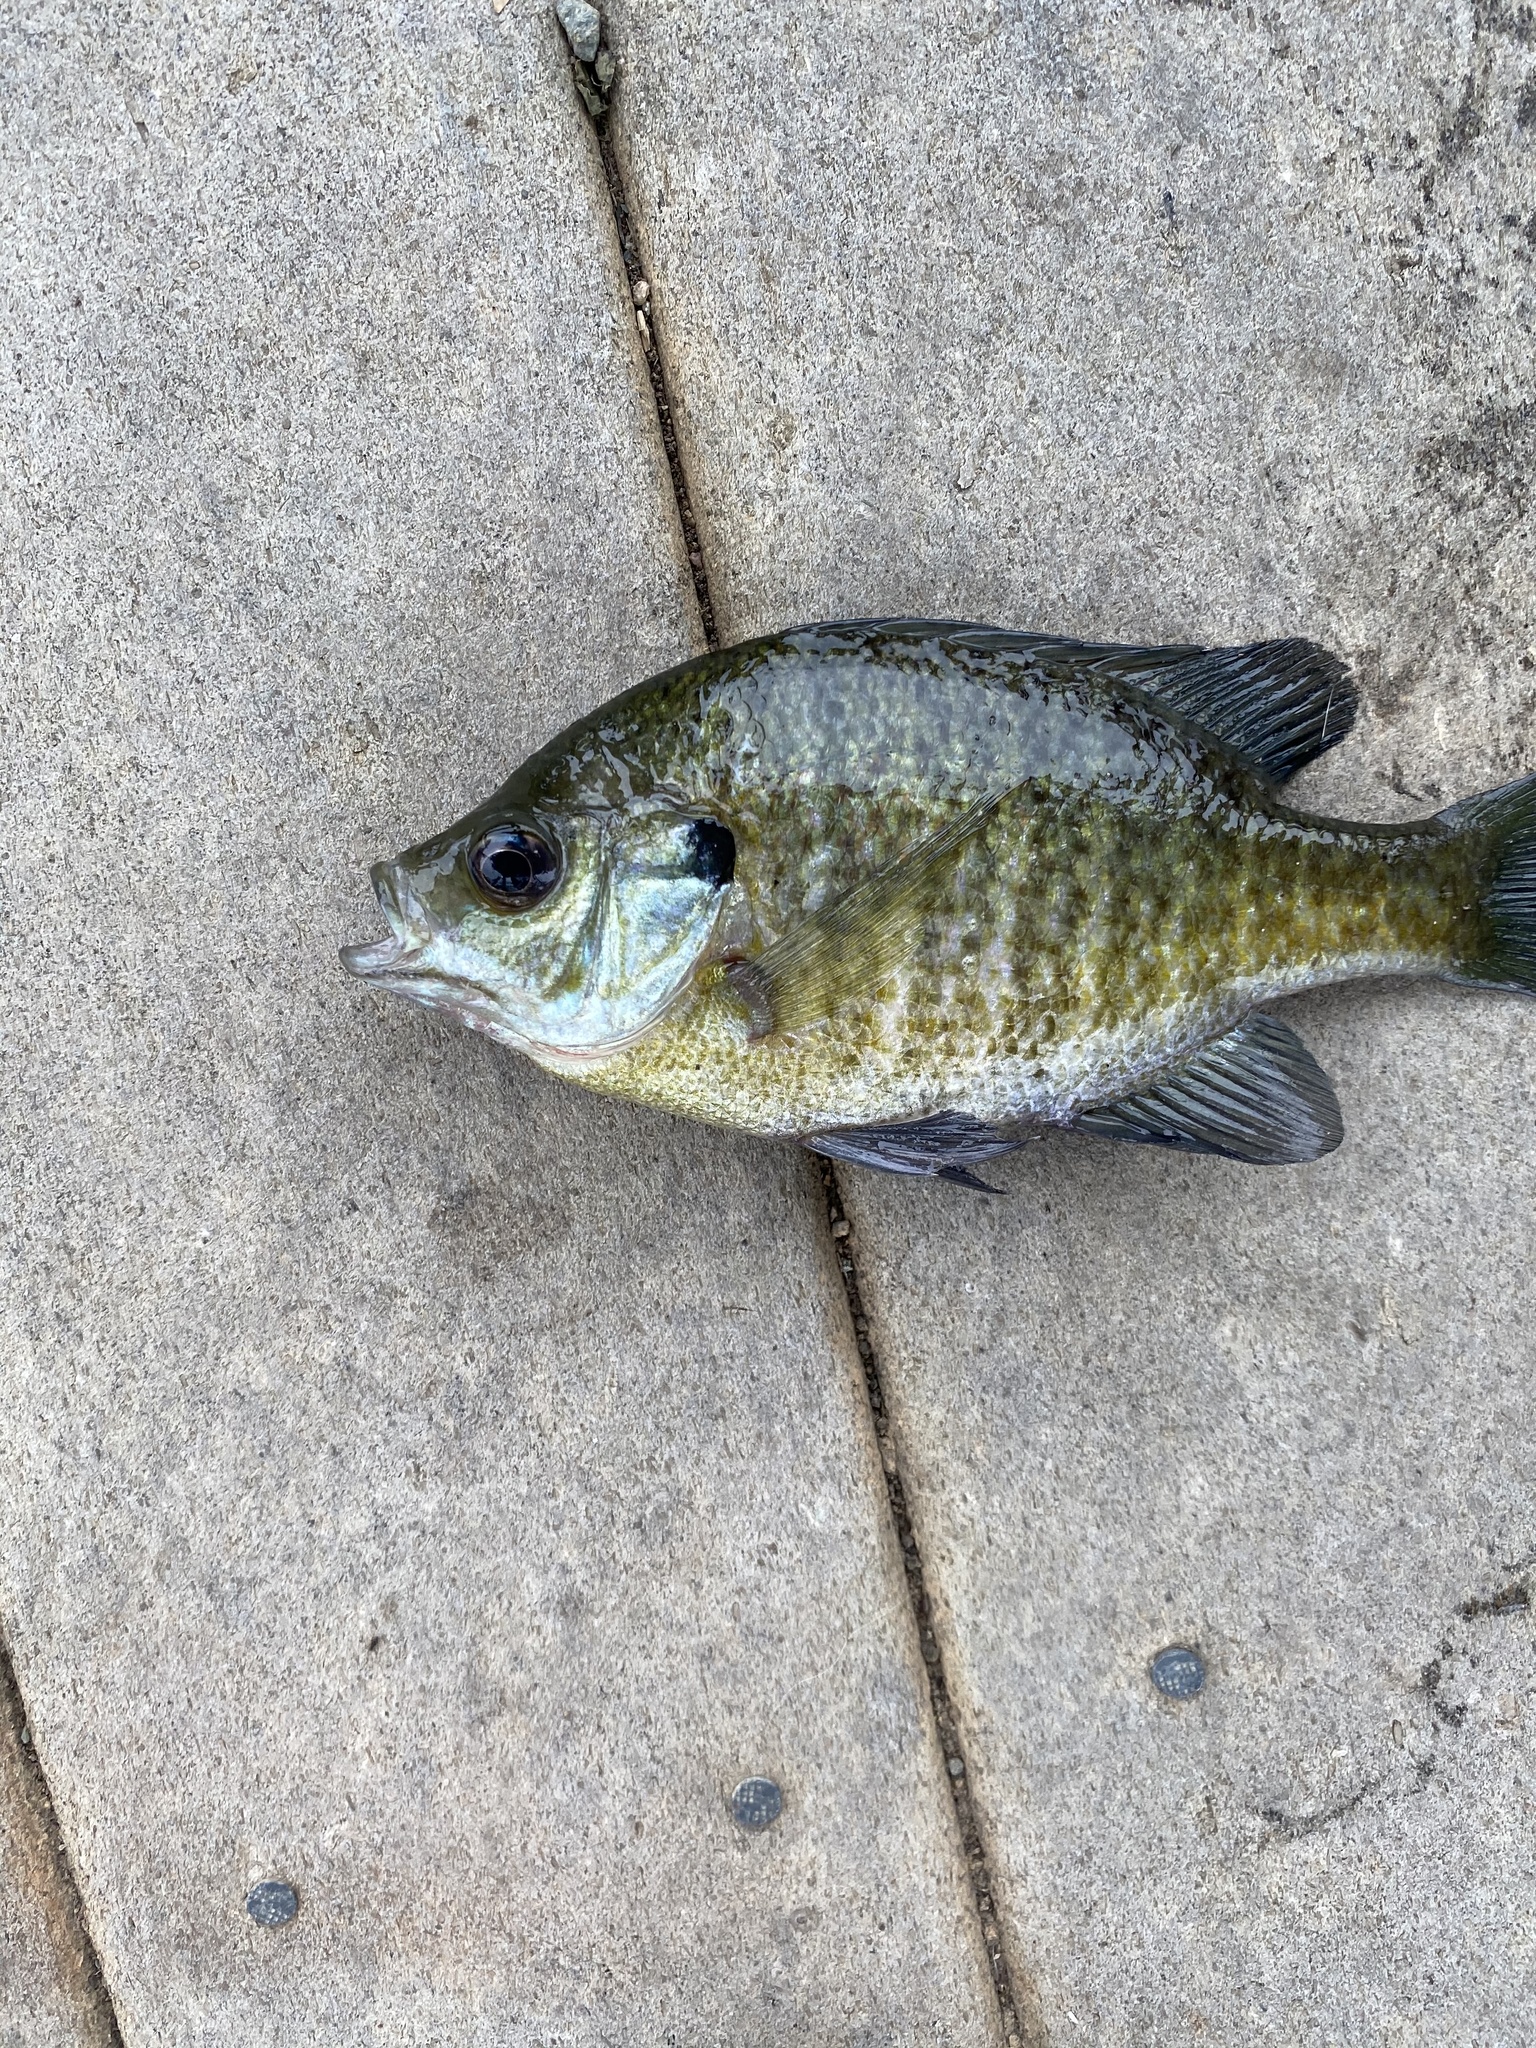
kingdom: Animalia
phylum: Chordata
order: Perciformes
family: Centrarchidae
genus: Lepomis
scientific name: Lepomis macrochirus
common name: Bluegill
